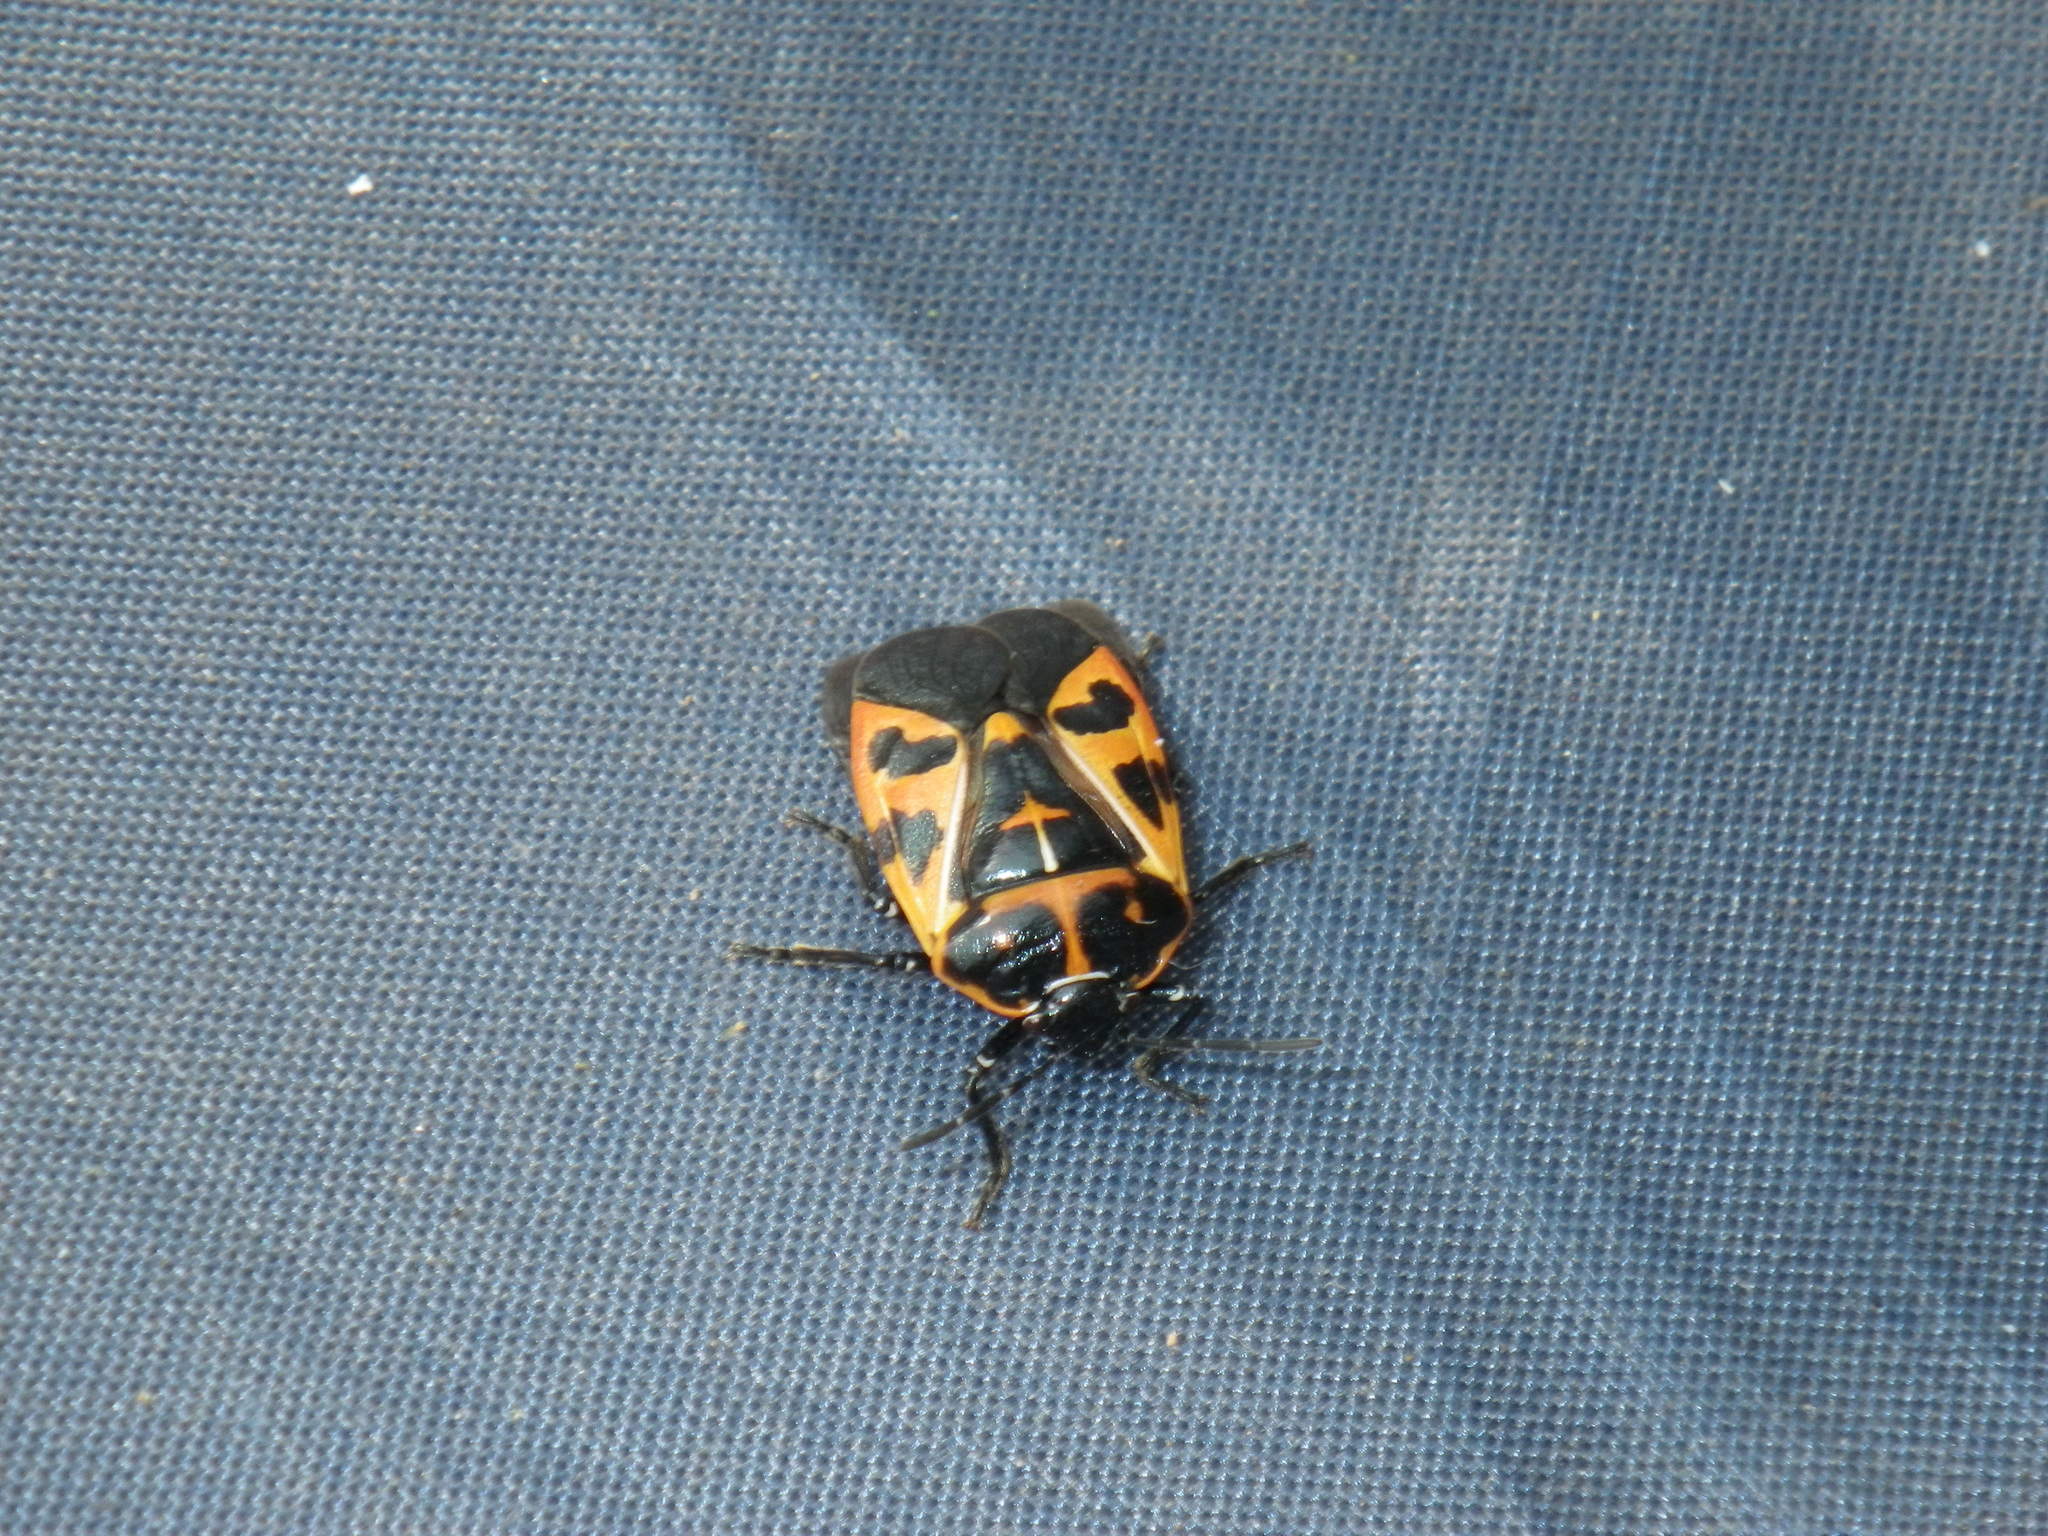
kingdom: Animalia
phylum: Arthropoda
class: Insecta
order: Hemiptera
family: Pentatomidae
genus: Murgantia
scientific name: Murgantia histrionica
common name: Harlequin bug
